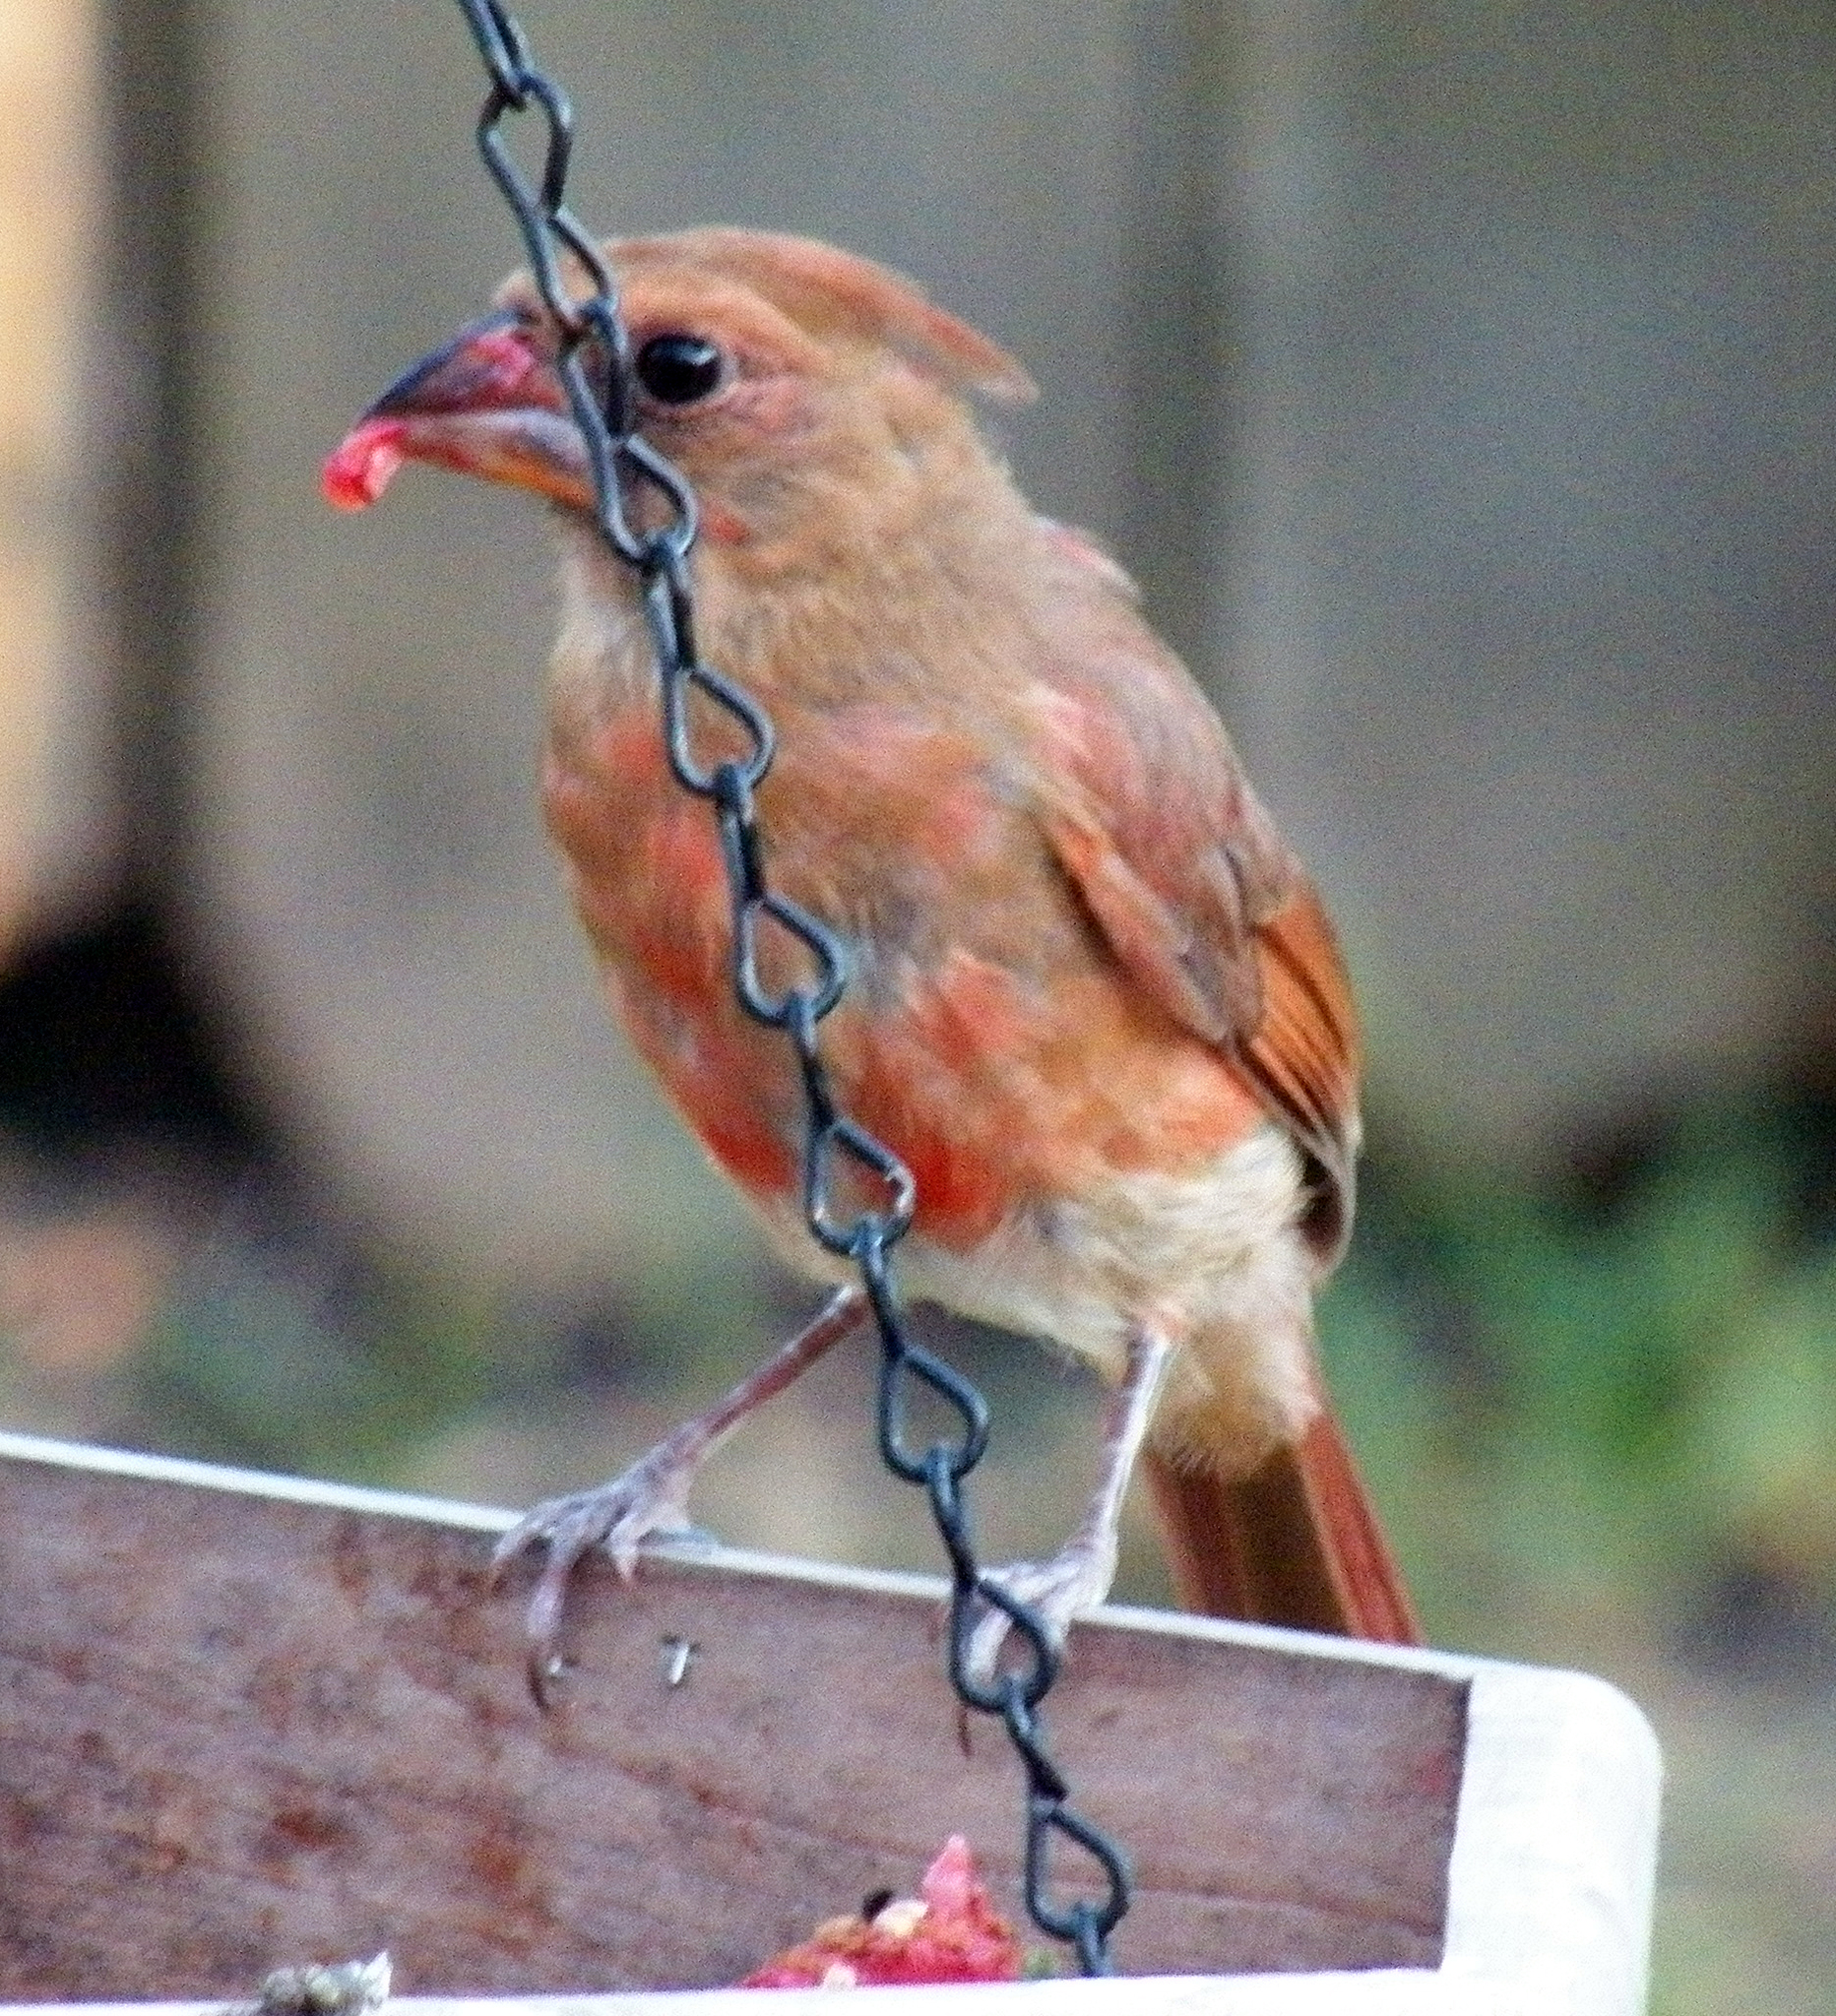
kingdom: Animalia
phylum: Chordata
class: Aves
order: Passeriformes
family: Cardinalidae
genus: Cardinalis
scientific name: Cardinalis cardinalis
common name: Northern cardinal
